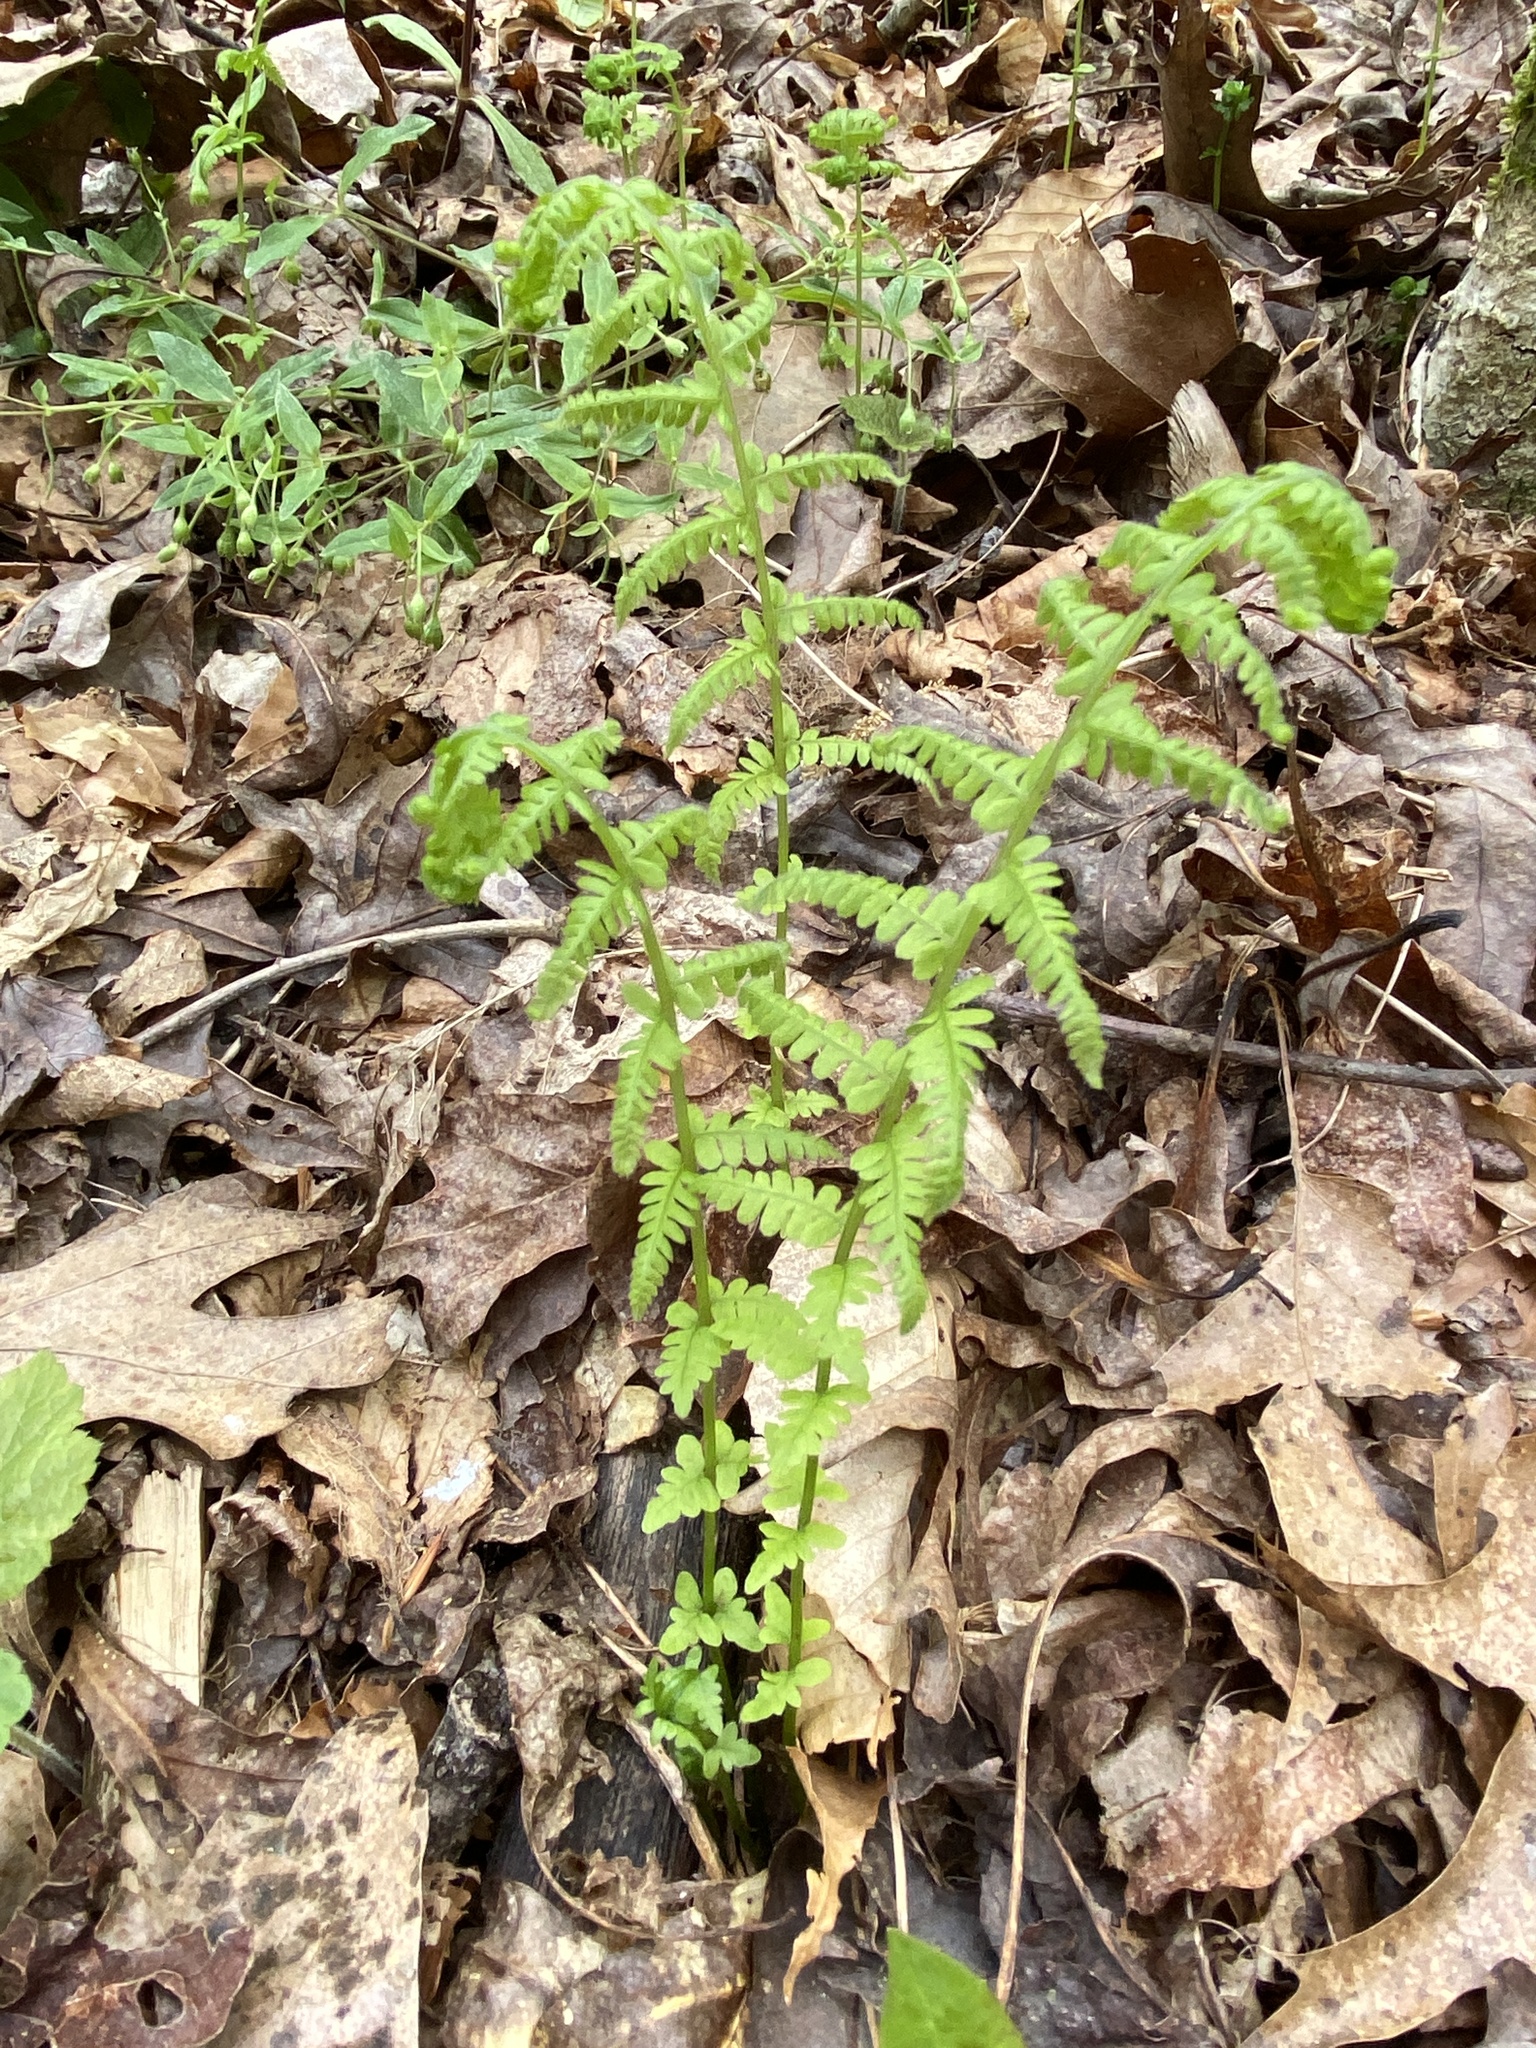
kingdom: Plantae
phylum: Tracheophyta
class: Polypodiopsida
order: Polypodiales
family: Thelypteridaceae
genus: Amauropelta
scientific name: Amauropelta noveboracensis
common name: New york fern
